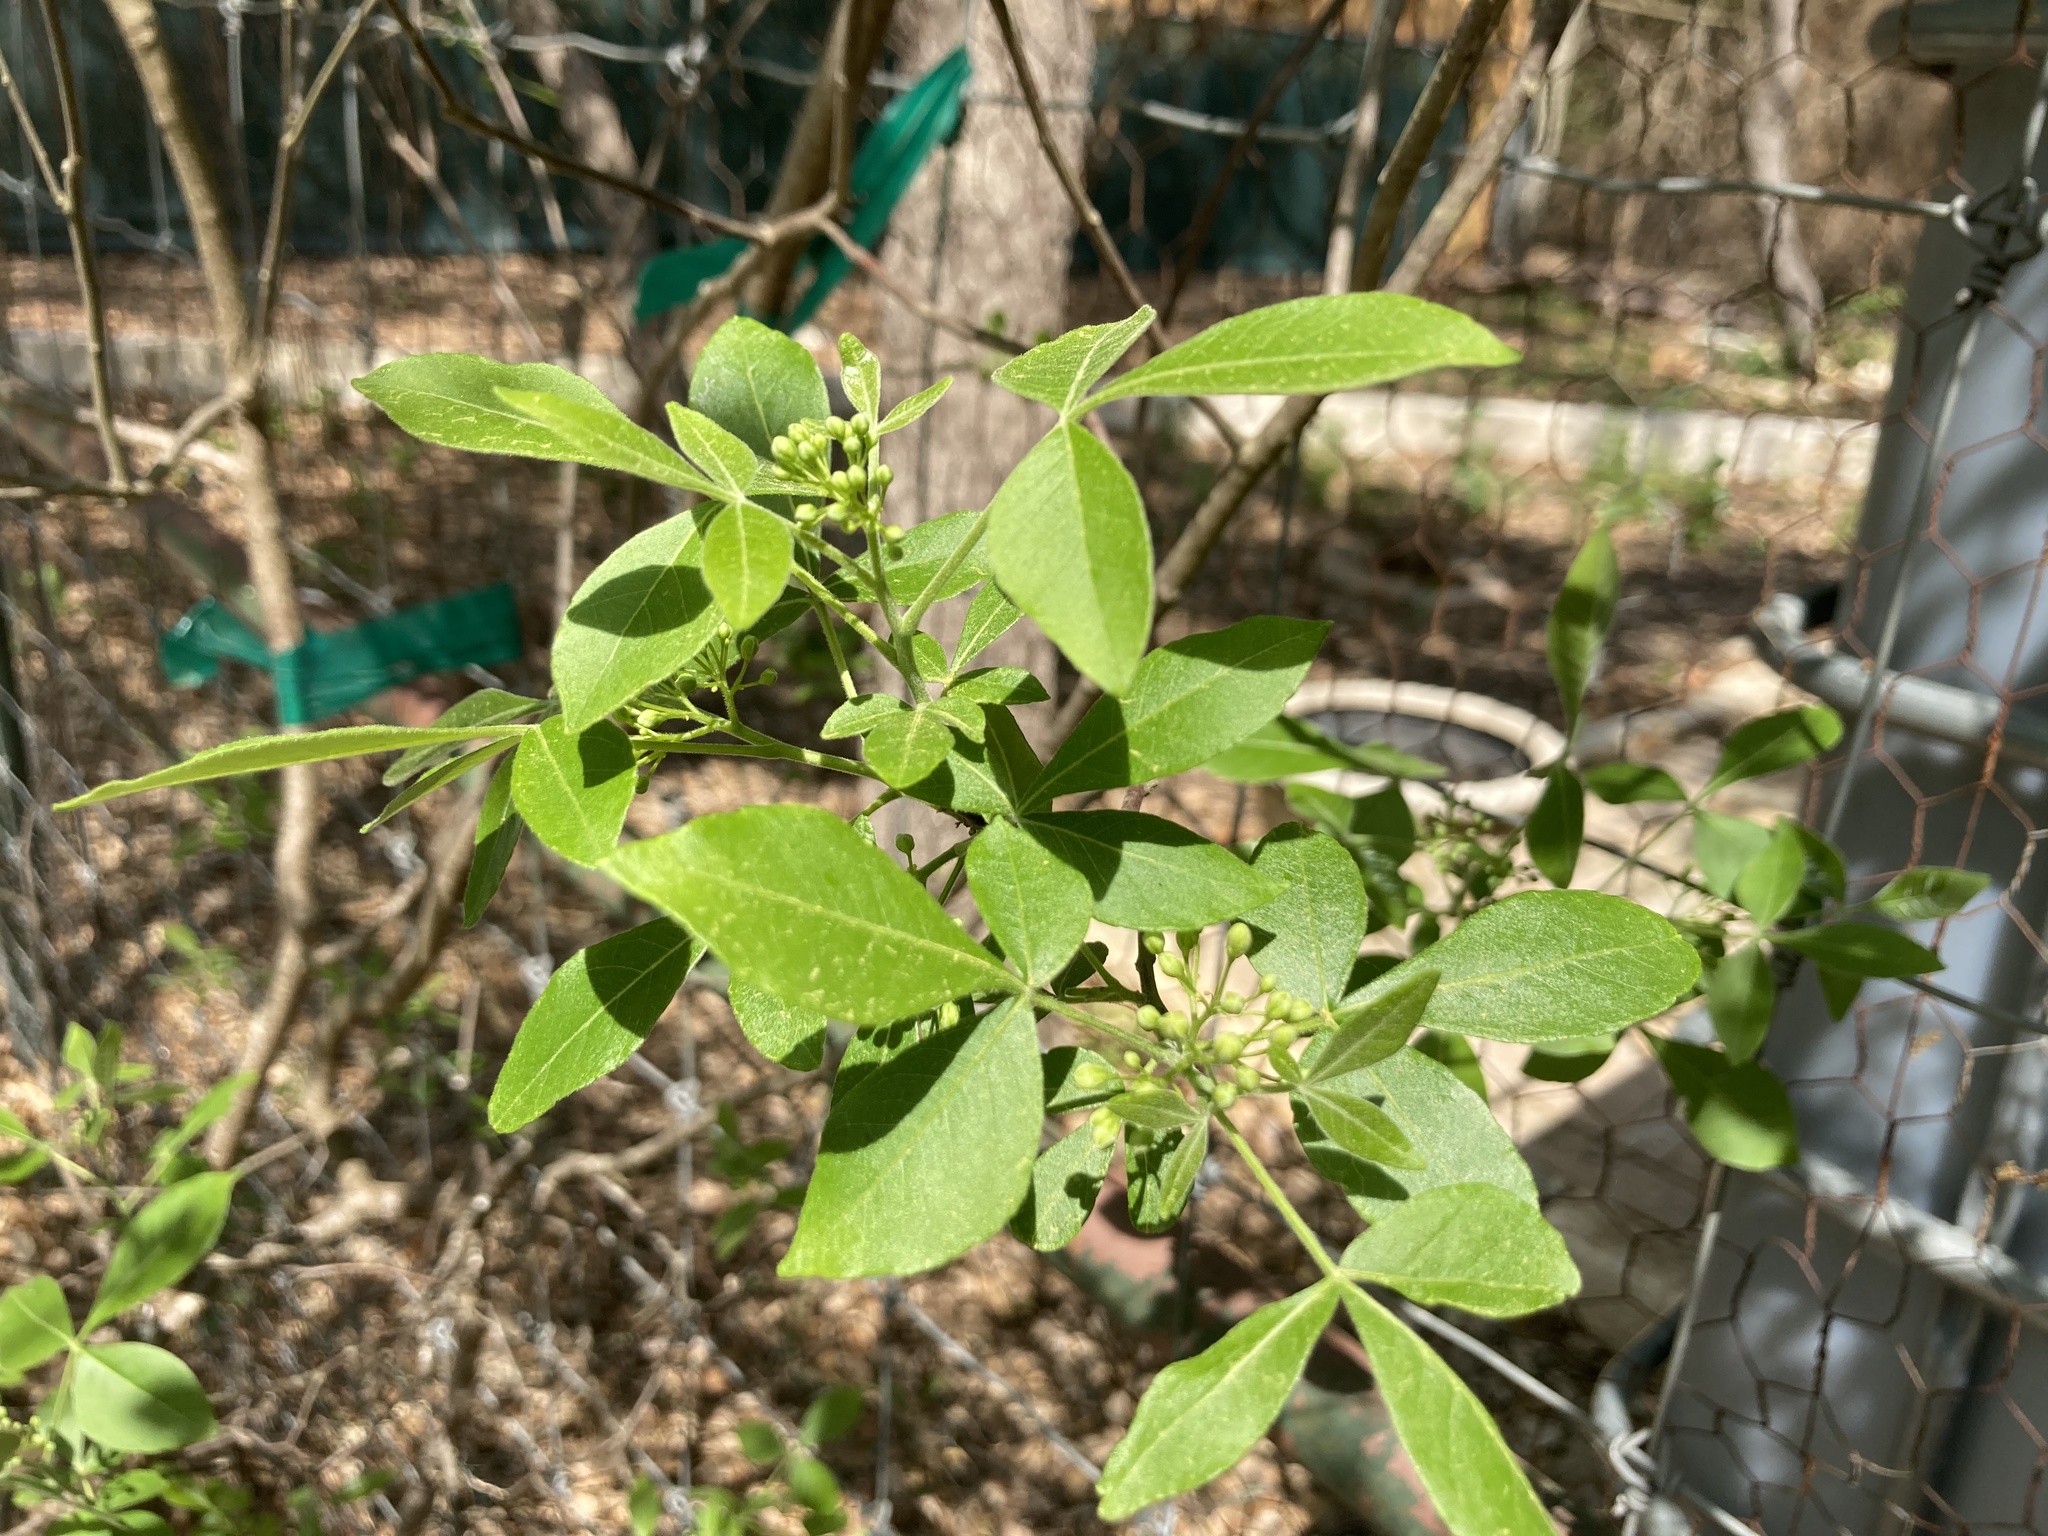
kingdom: Plantae
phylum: Tracheophyta
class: Magnoliopsida
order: Sapindales
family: Rutaceae
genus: Ptelea
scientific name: Ptelea trifoliata
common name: Common hop-tree
